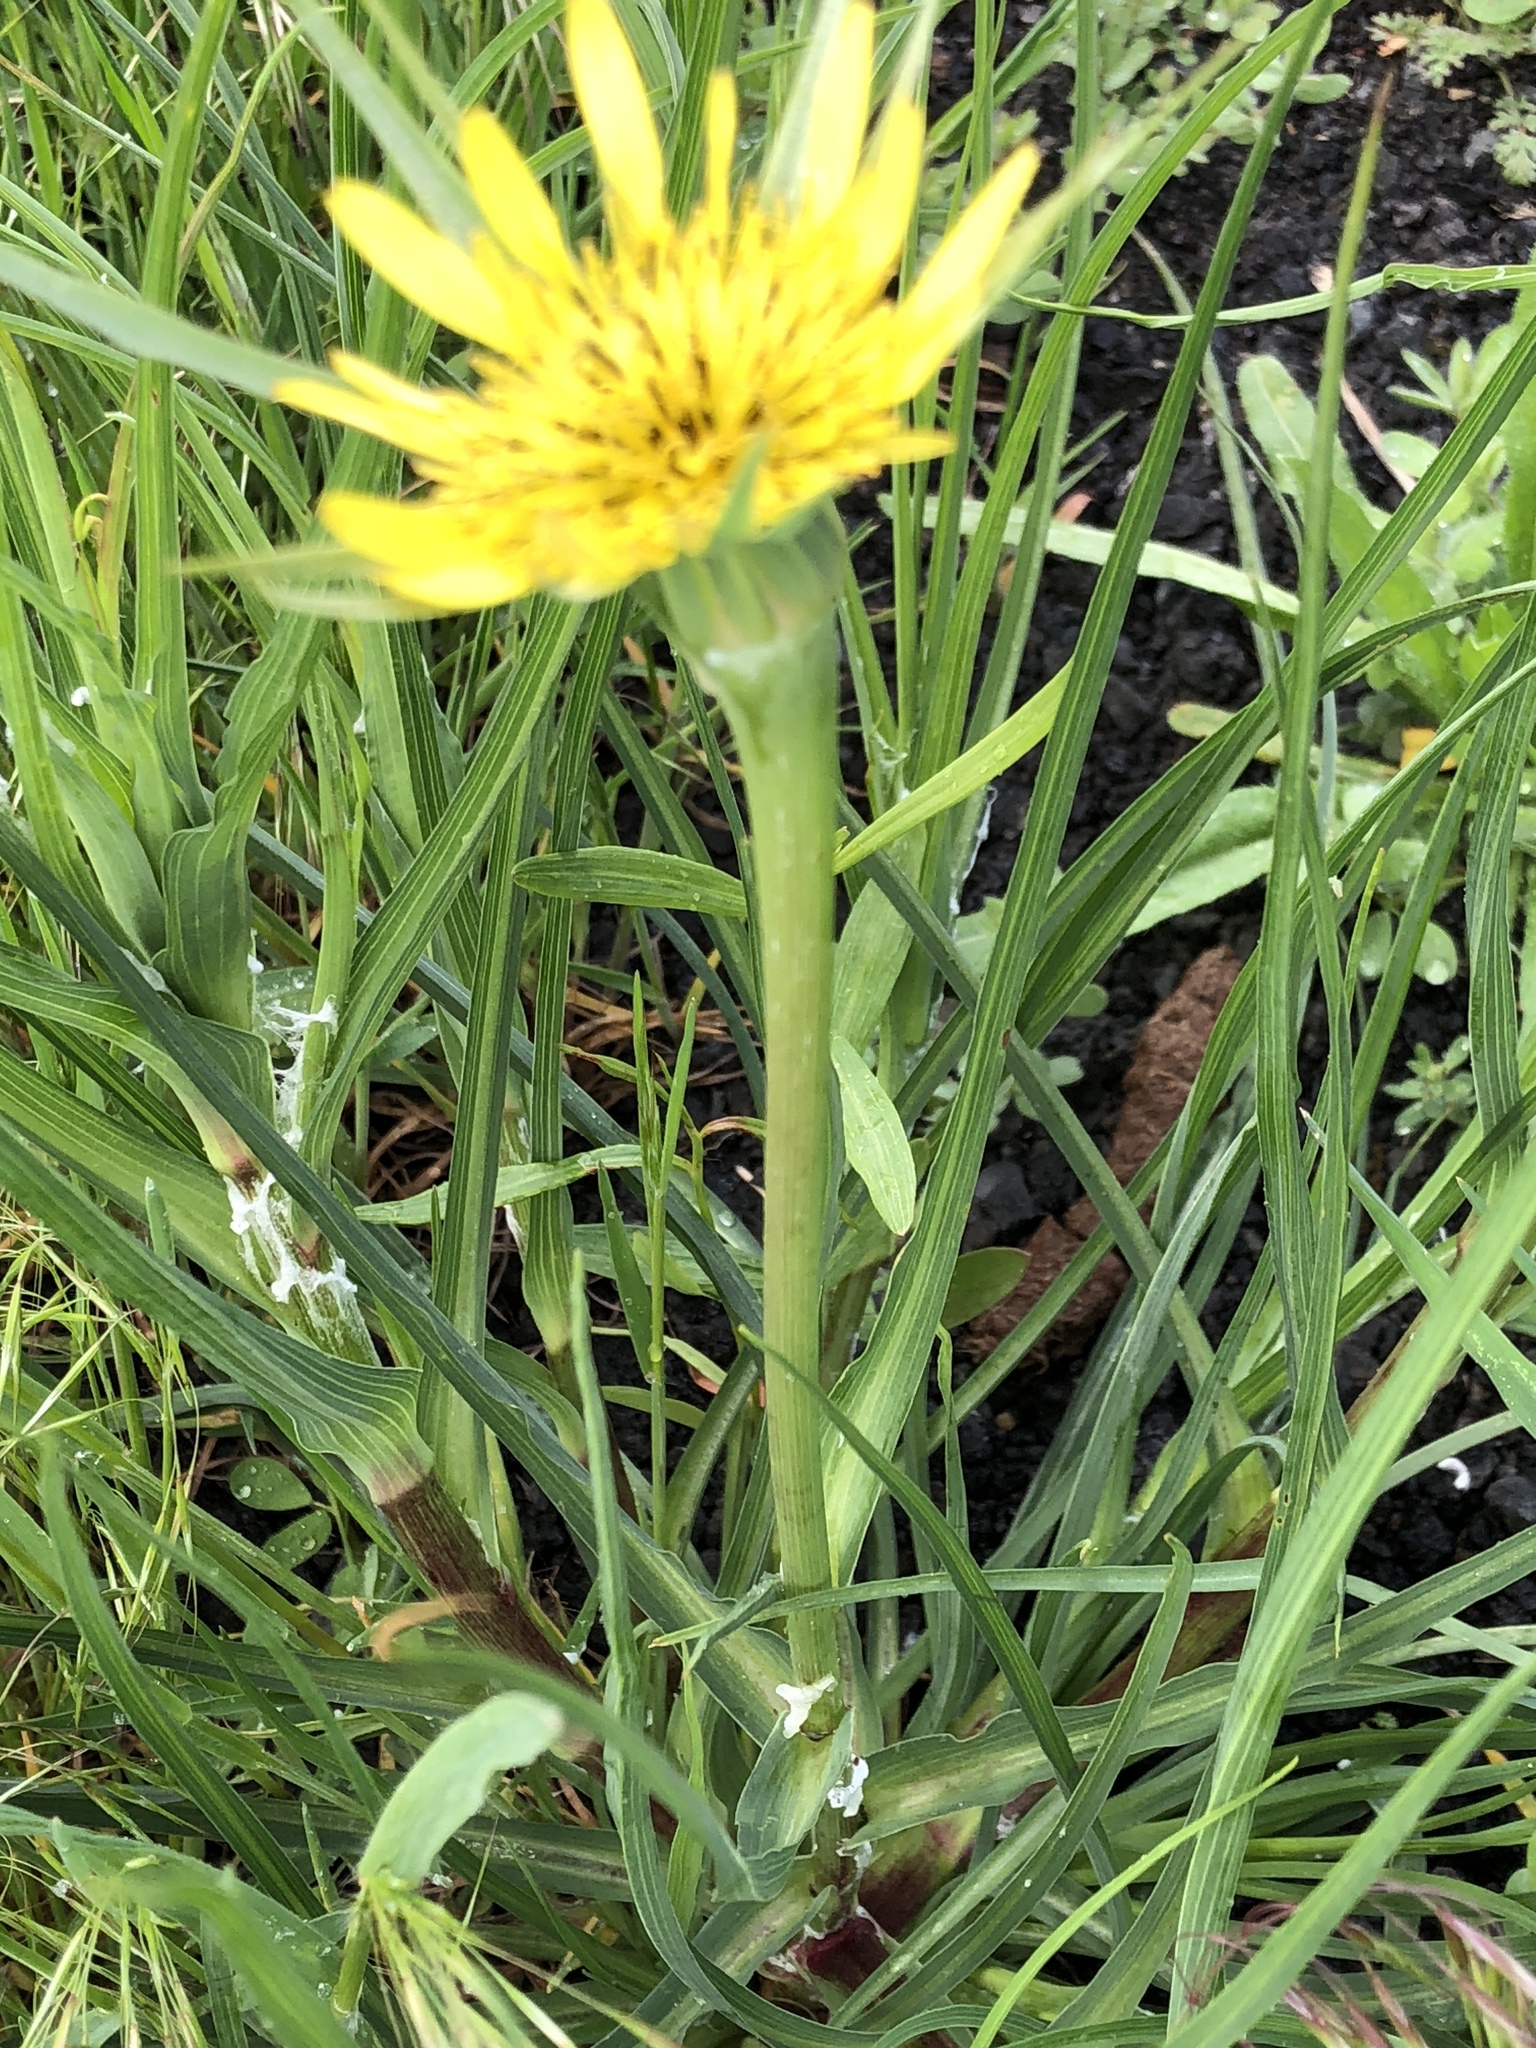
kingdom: Plantae
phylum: Tracheophyta
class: Magnoliopsida
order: Asterales
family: Asteraceae
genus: Tragopogon
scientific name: Tragopogon dubius
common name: Yellow salsify
